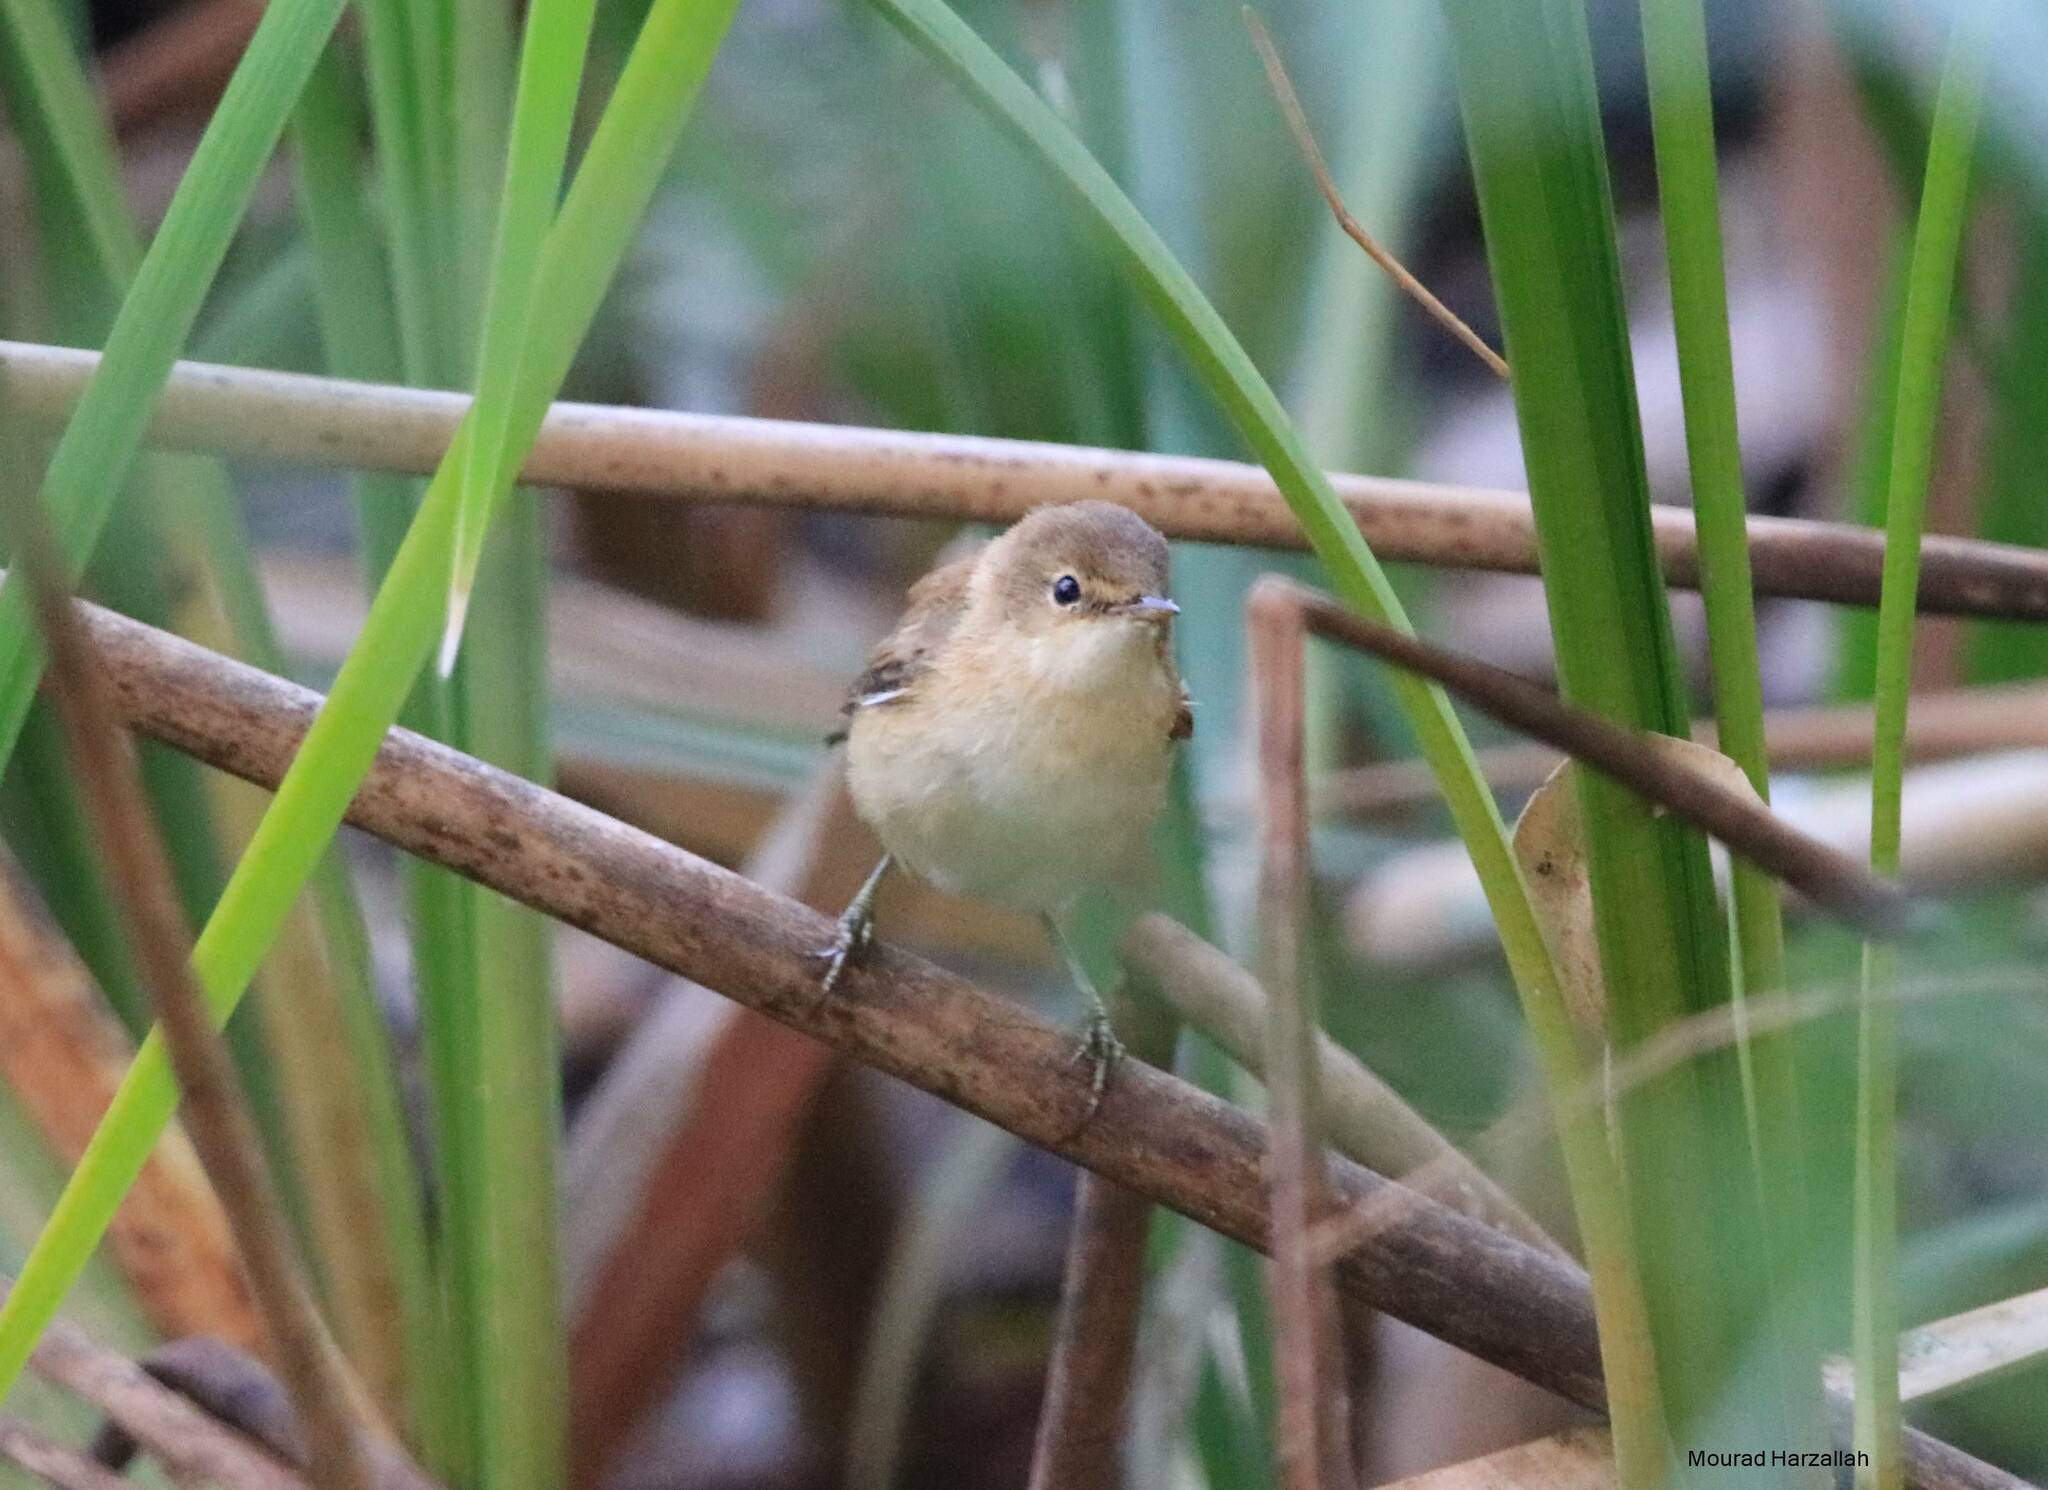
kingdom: Animalia
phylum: Chordata
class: Aves
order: Passeriformes
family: Acrocephalidae
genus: Acrocephalus
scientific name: Acrocephalus scirpaceus
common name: Eurasian reed warbler
